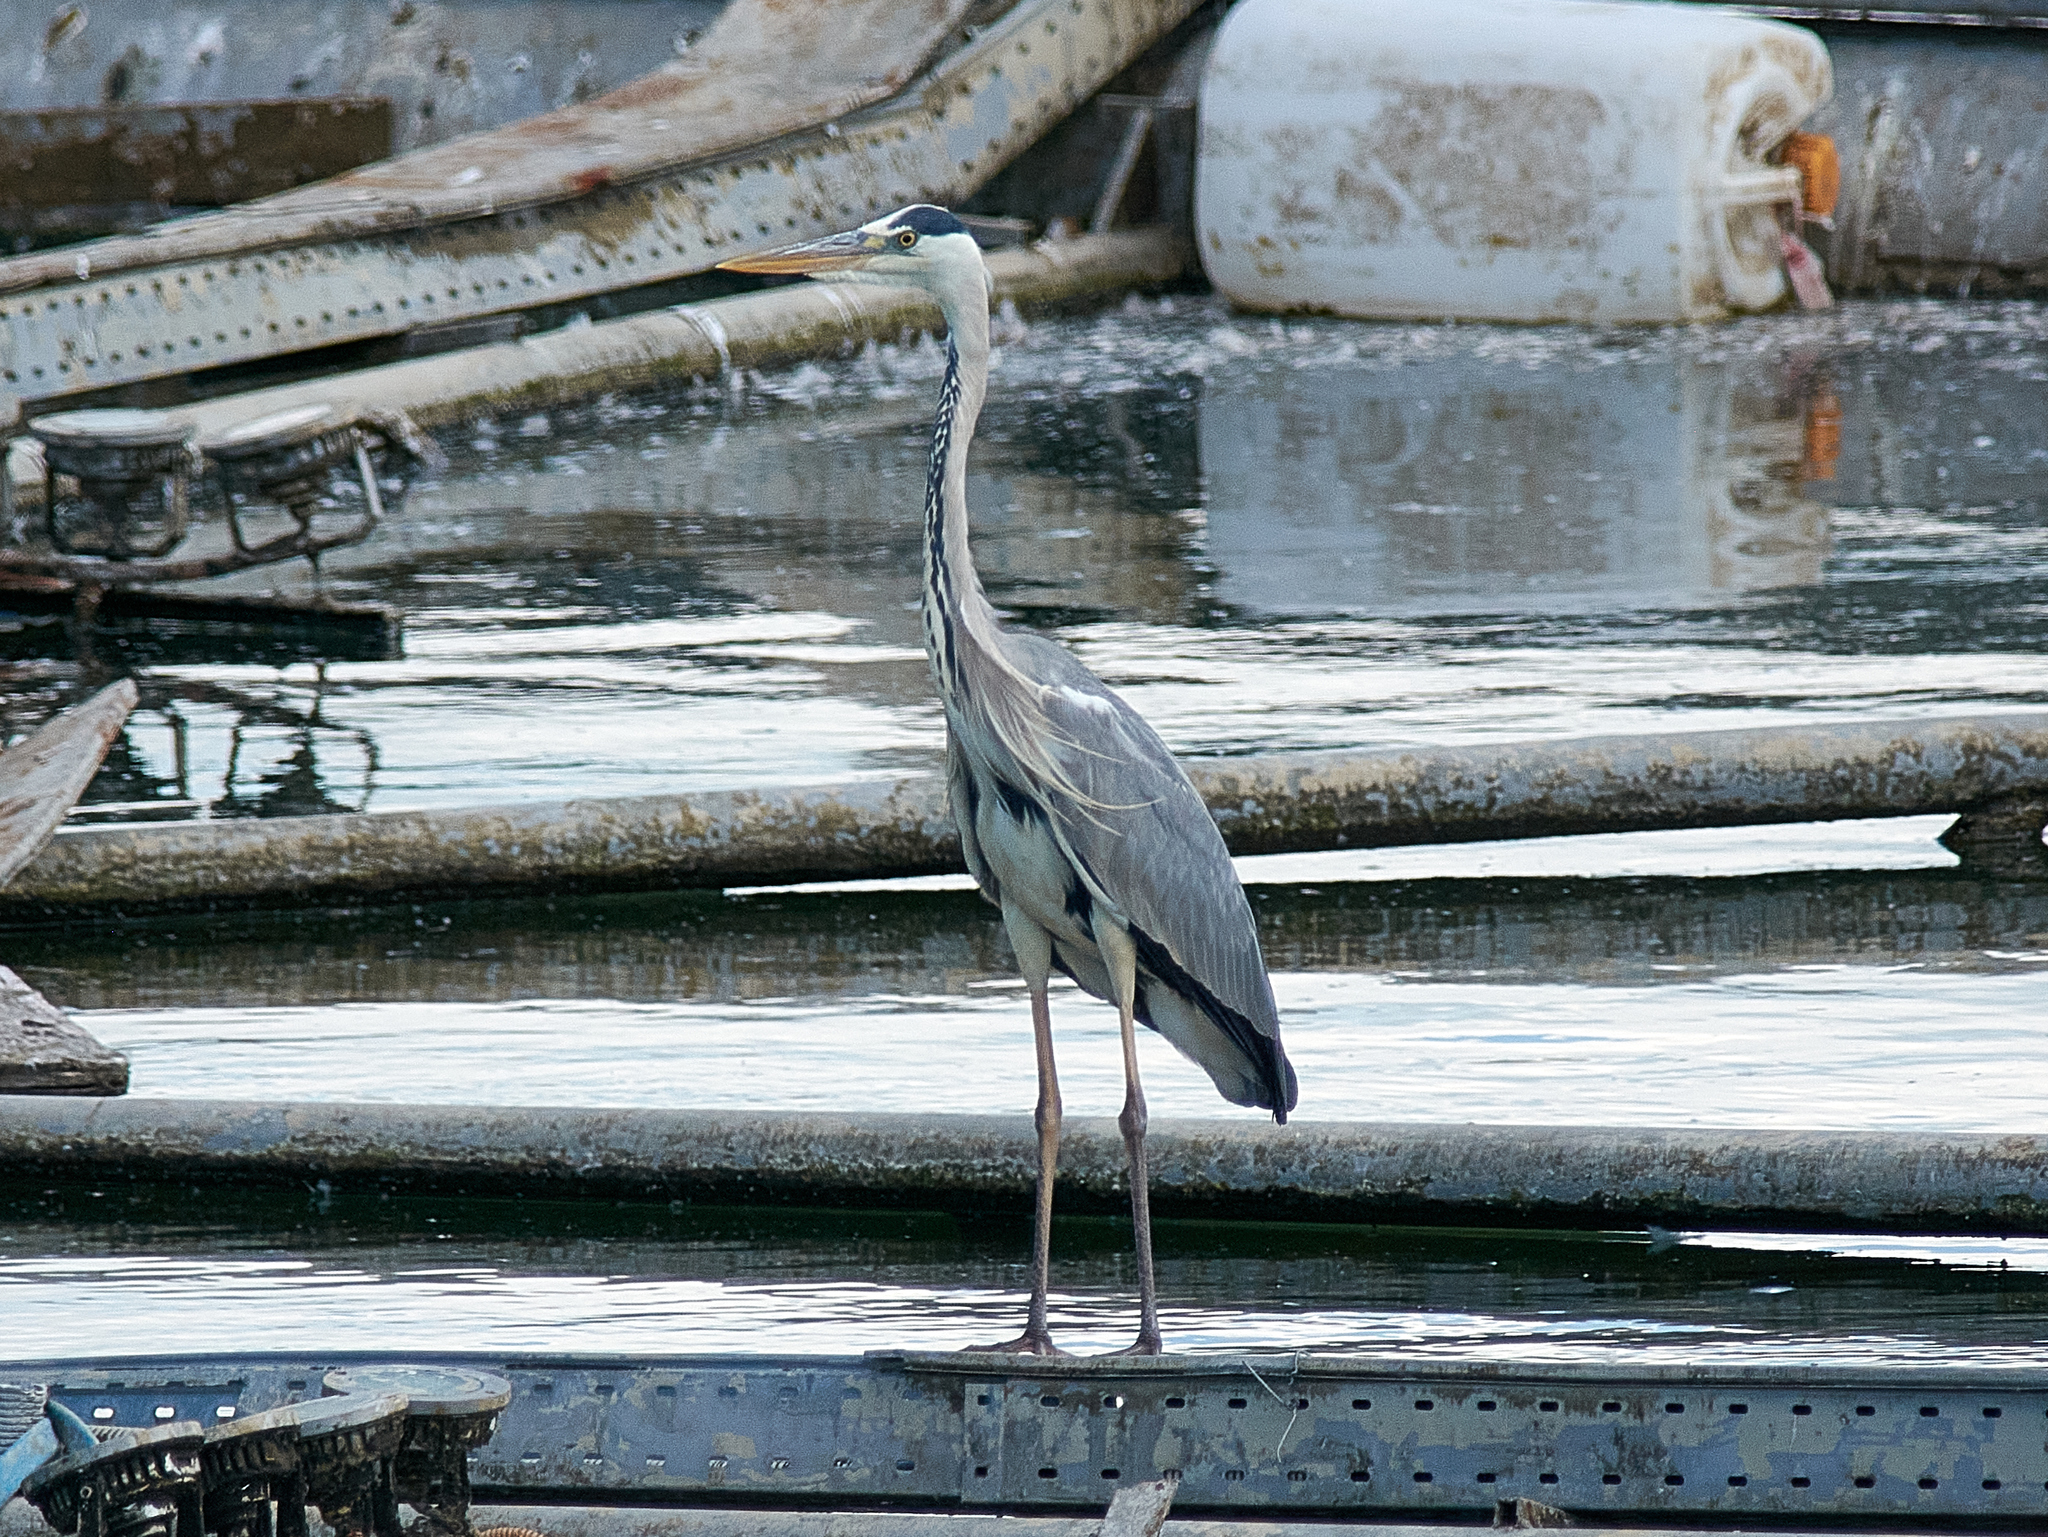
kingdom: Animalia
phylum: Chordata
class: Aves
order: Pelecaniformes
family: Ardeidae
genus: Ardea
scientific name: Ardea cinerea
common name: Grey heron
